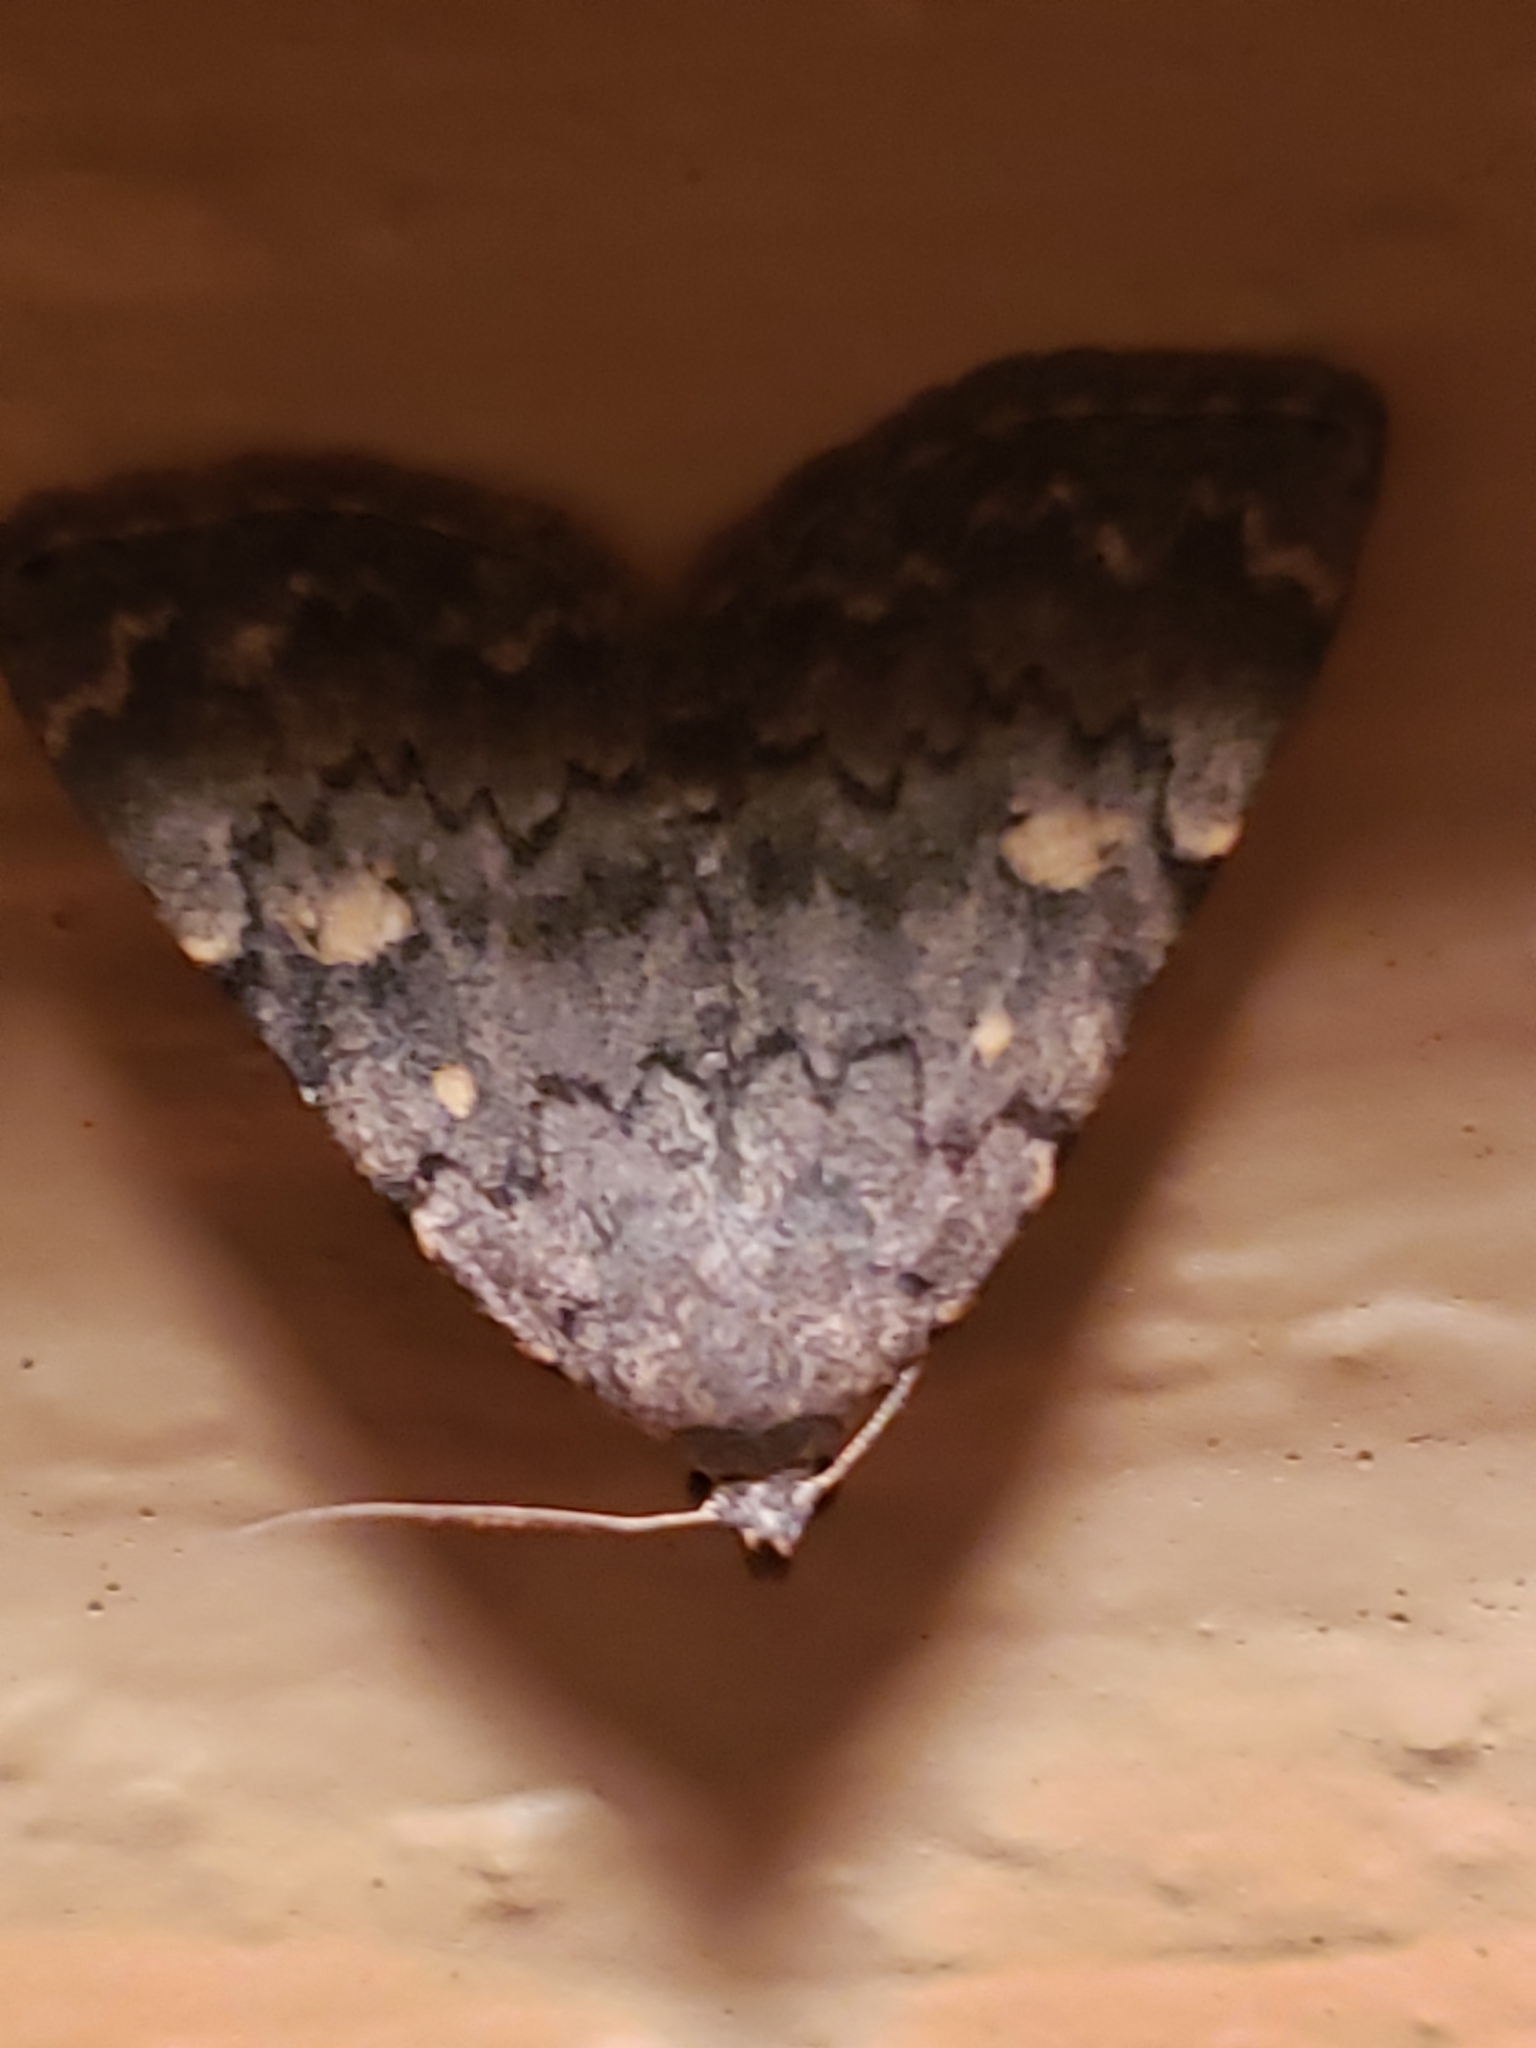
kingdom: Animalia
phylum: Arthropoda
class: Insecta
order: Lepidoptera
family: Erebidae
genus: Idia
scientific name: Idia aemula
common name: Common idia moth
